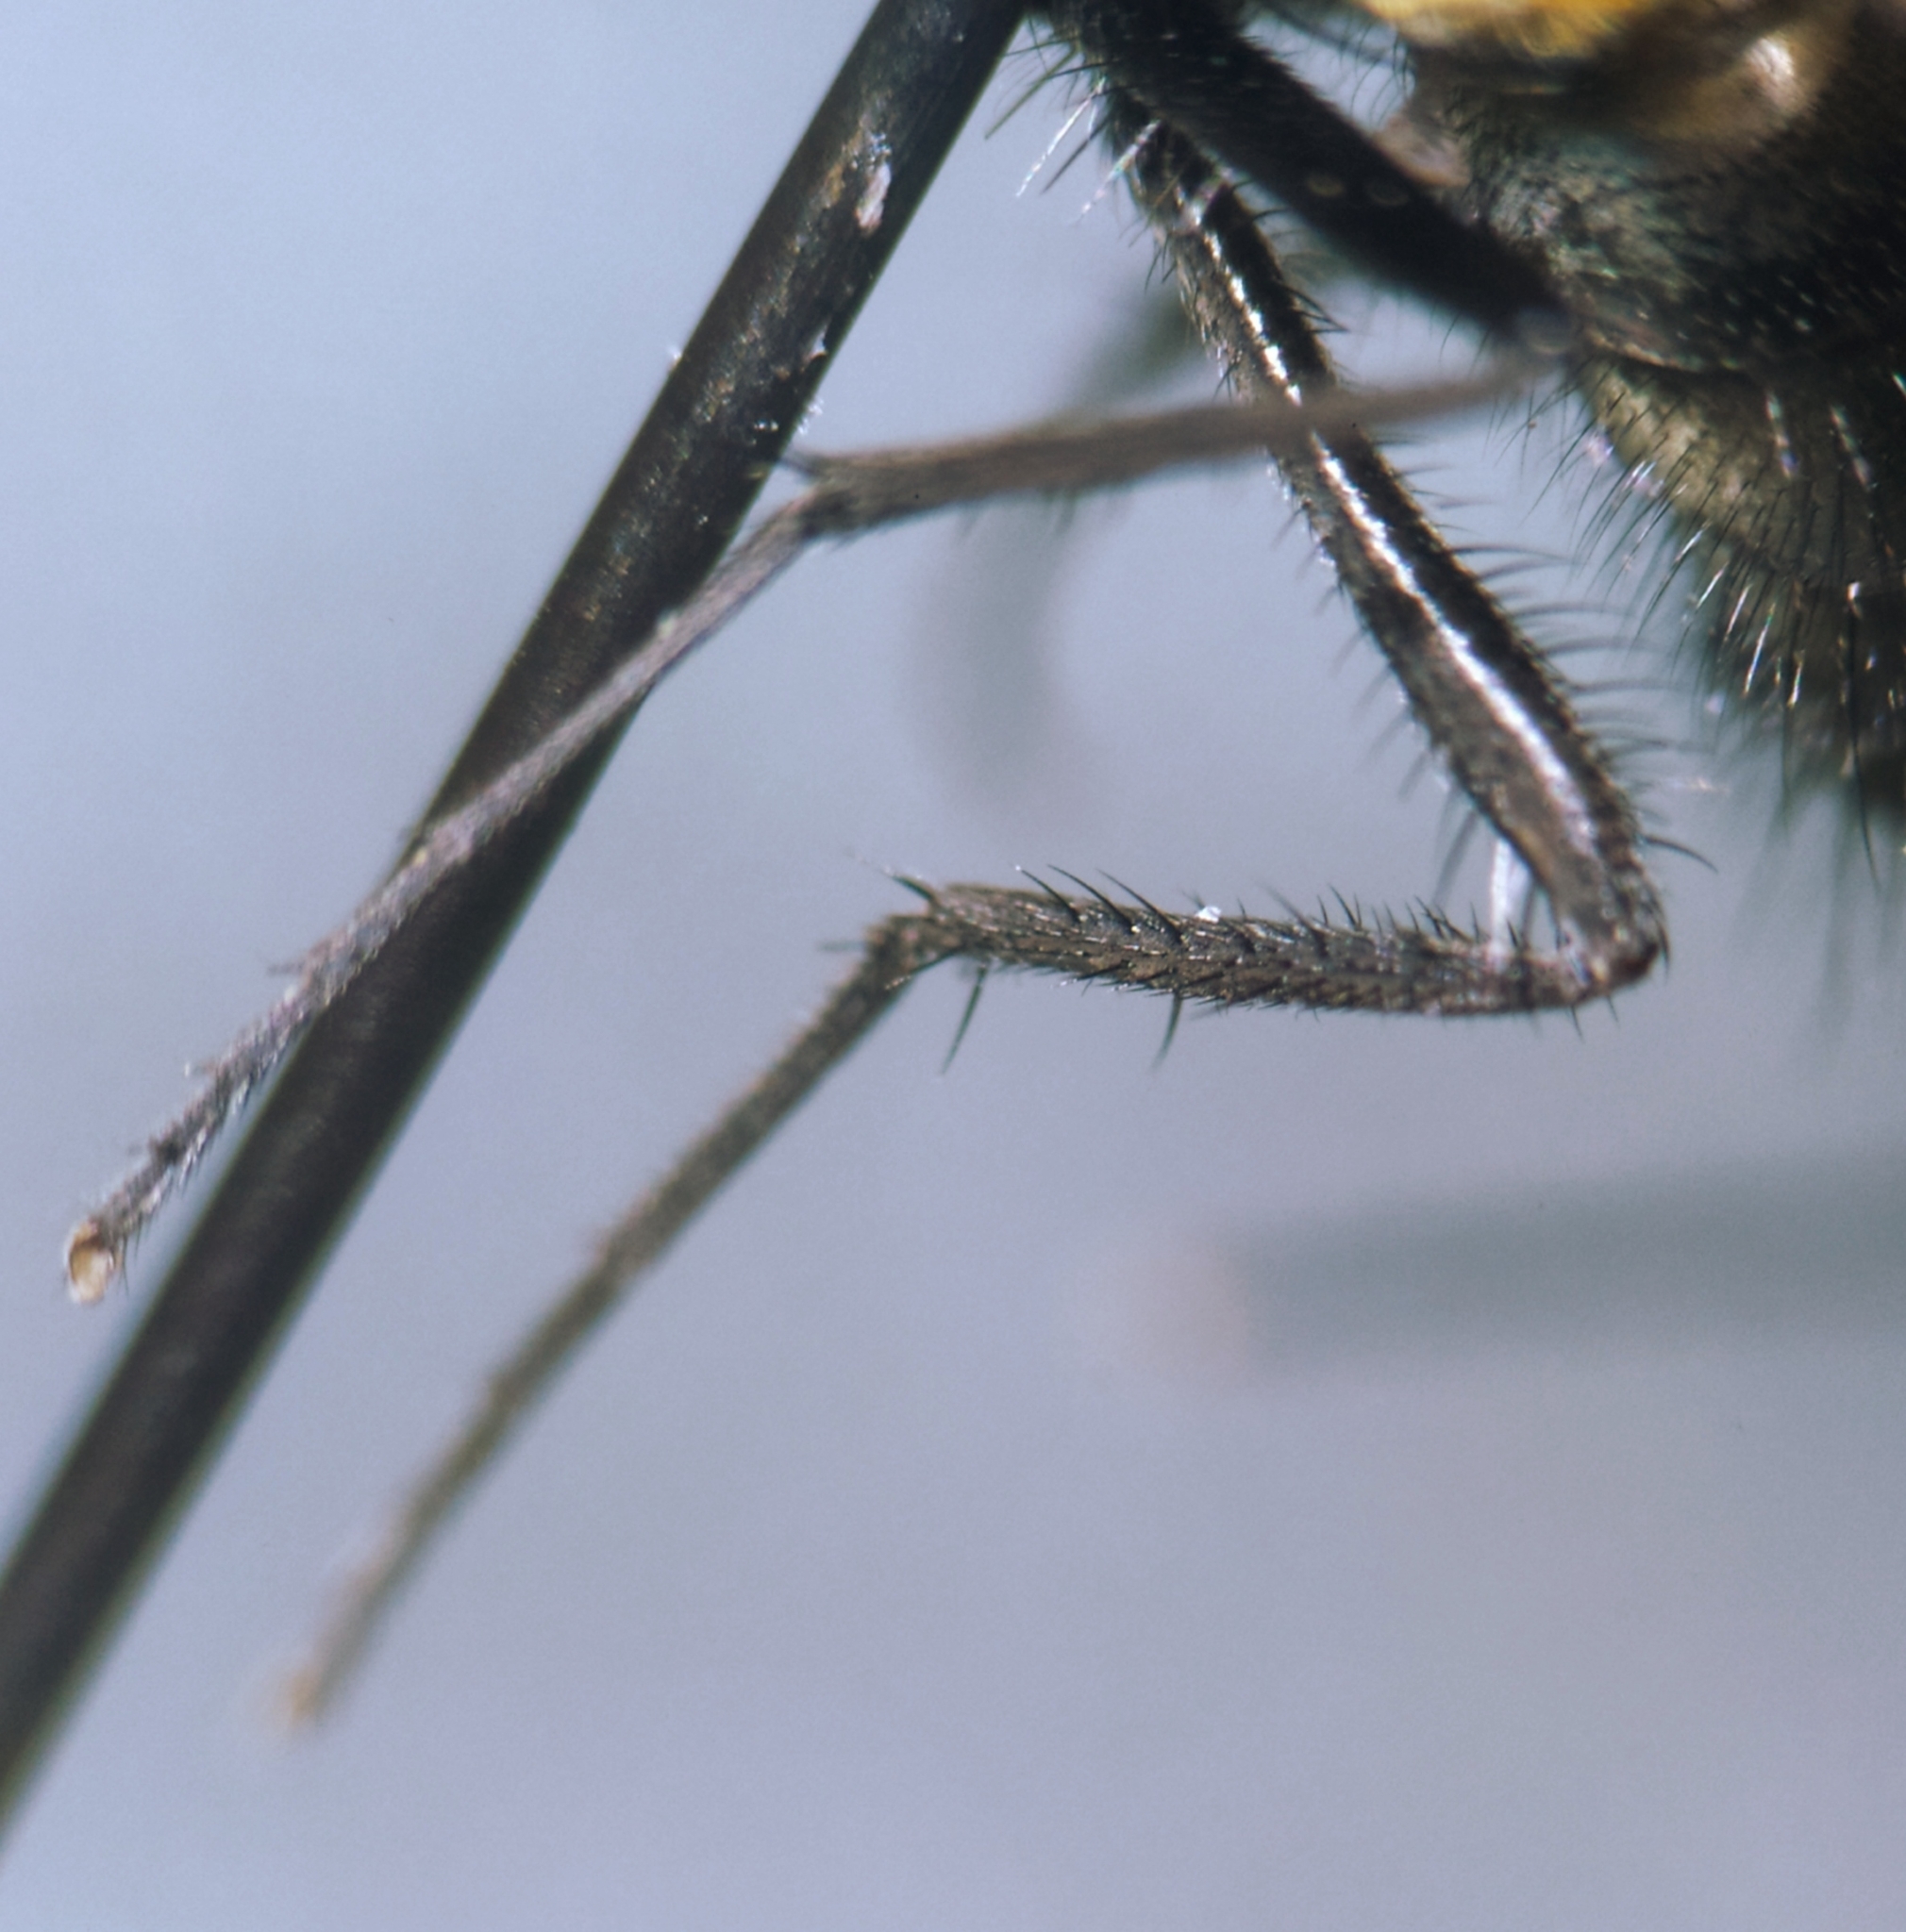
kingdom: Animalia
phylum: Arthropoda
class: Insecta
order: Diptera
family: Muscidae
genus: Hydrotaea
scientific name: Hydrotaea cyrtoneurina
